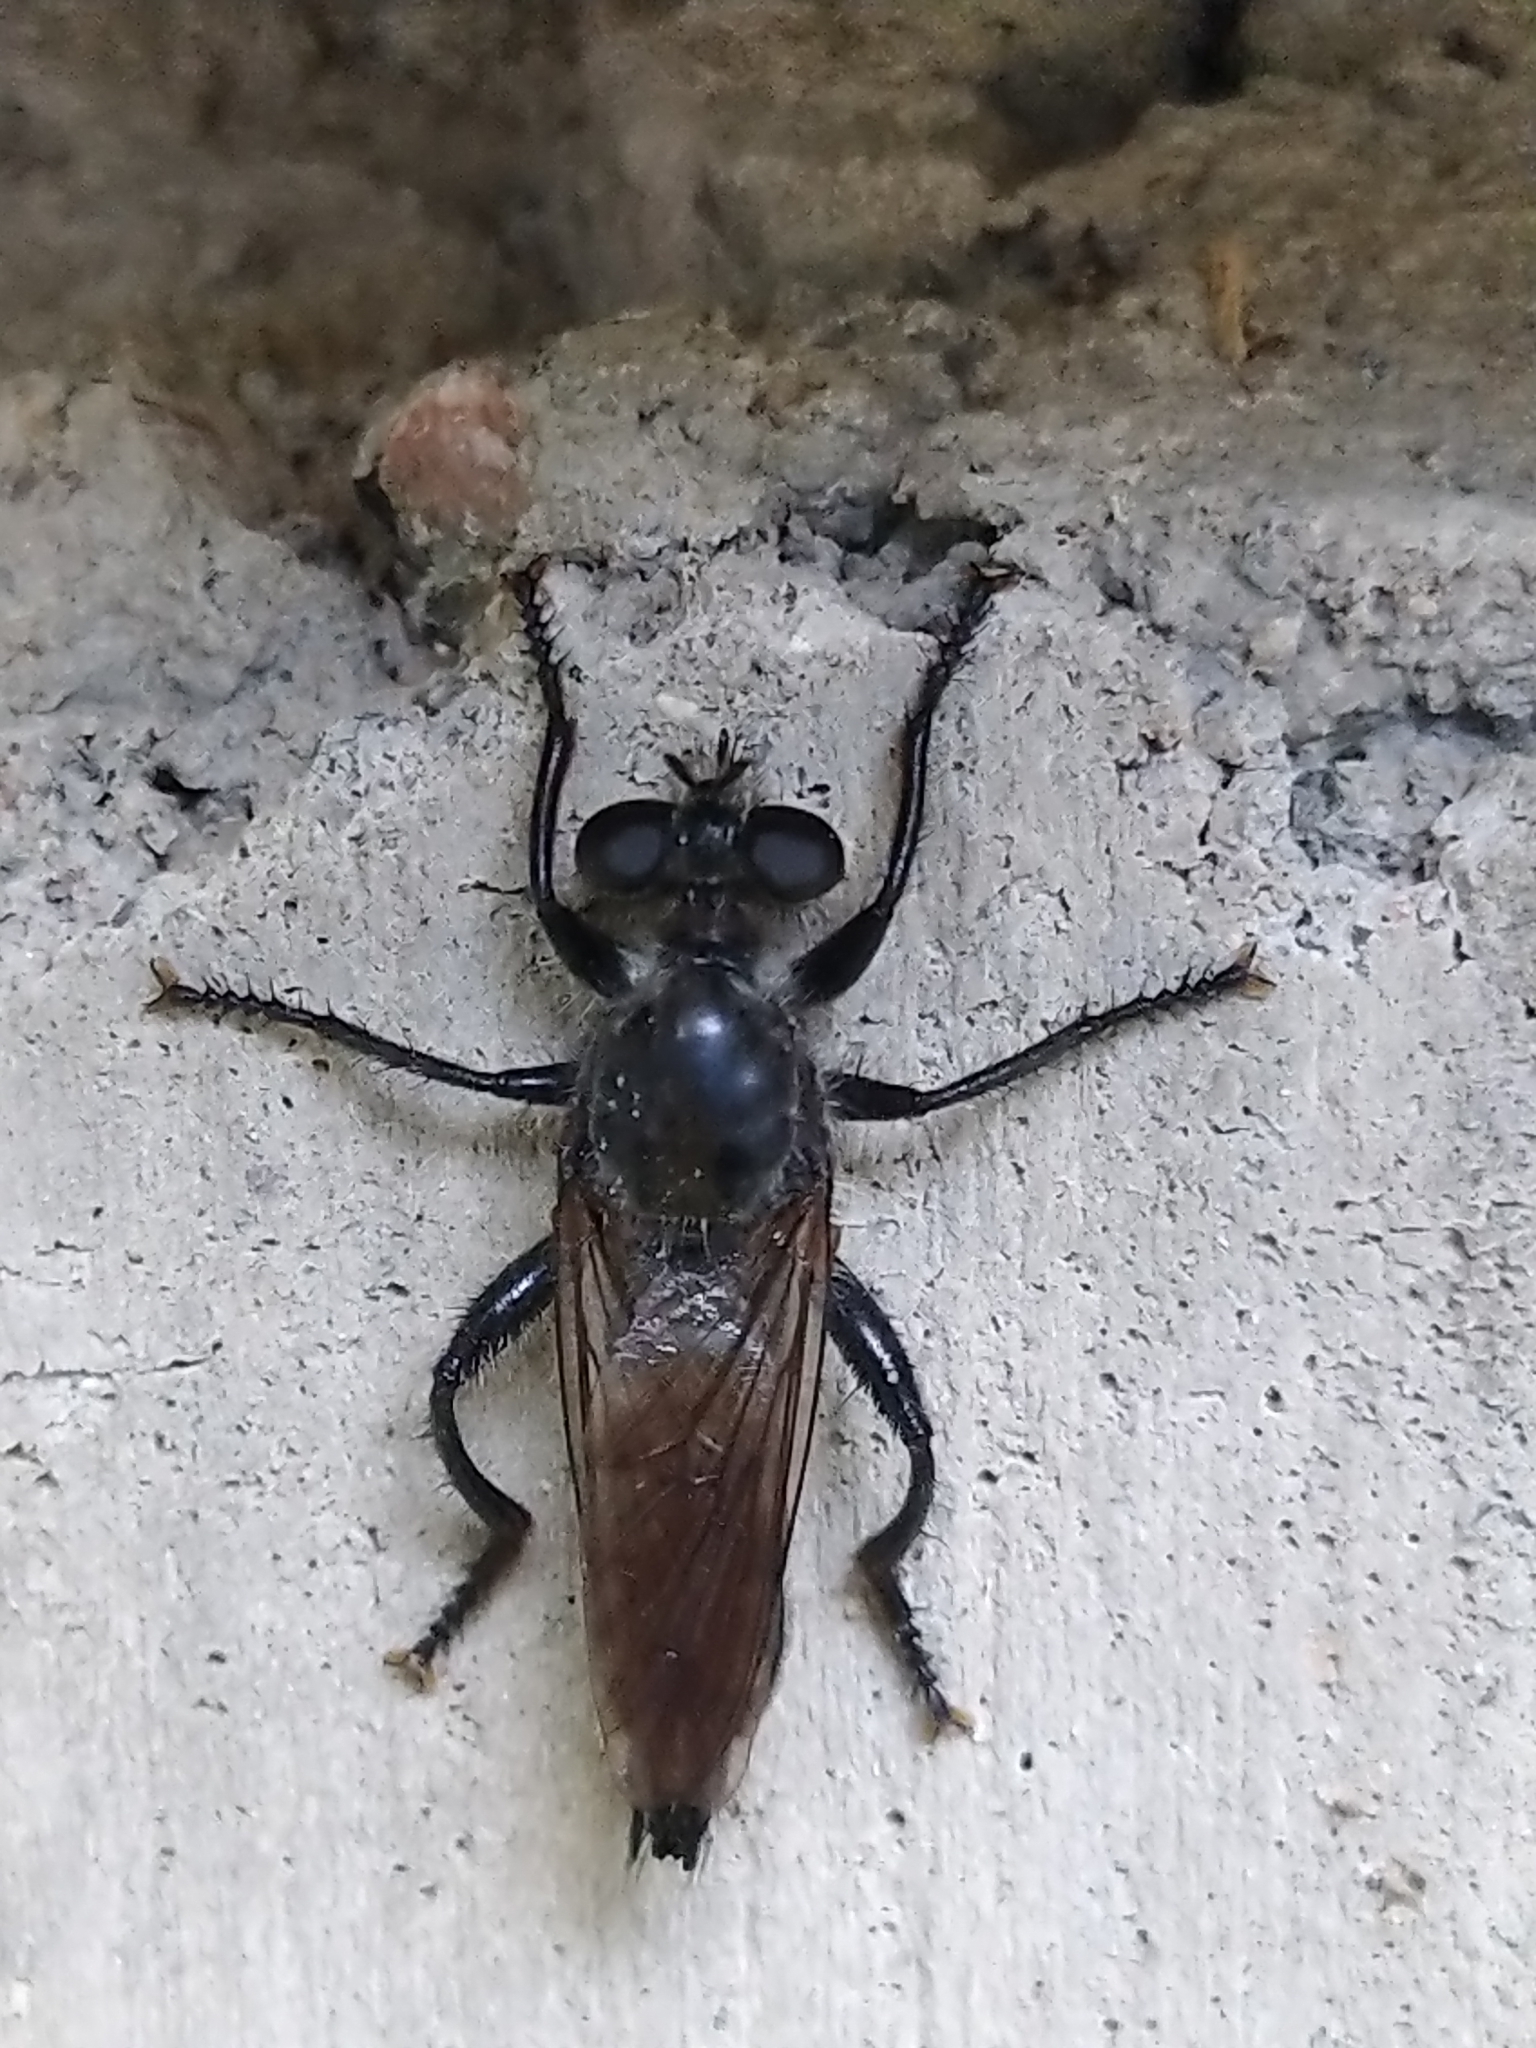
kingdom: Animalia
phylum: Arthropoda
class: Insecta
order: Diptera
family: Asilidae
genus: Laphria
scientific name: Laphria gilva
